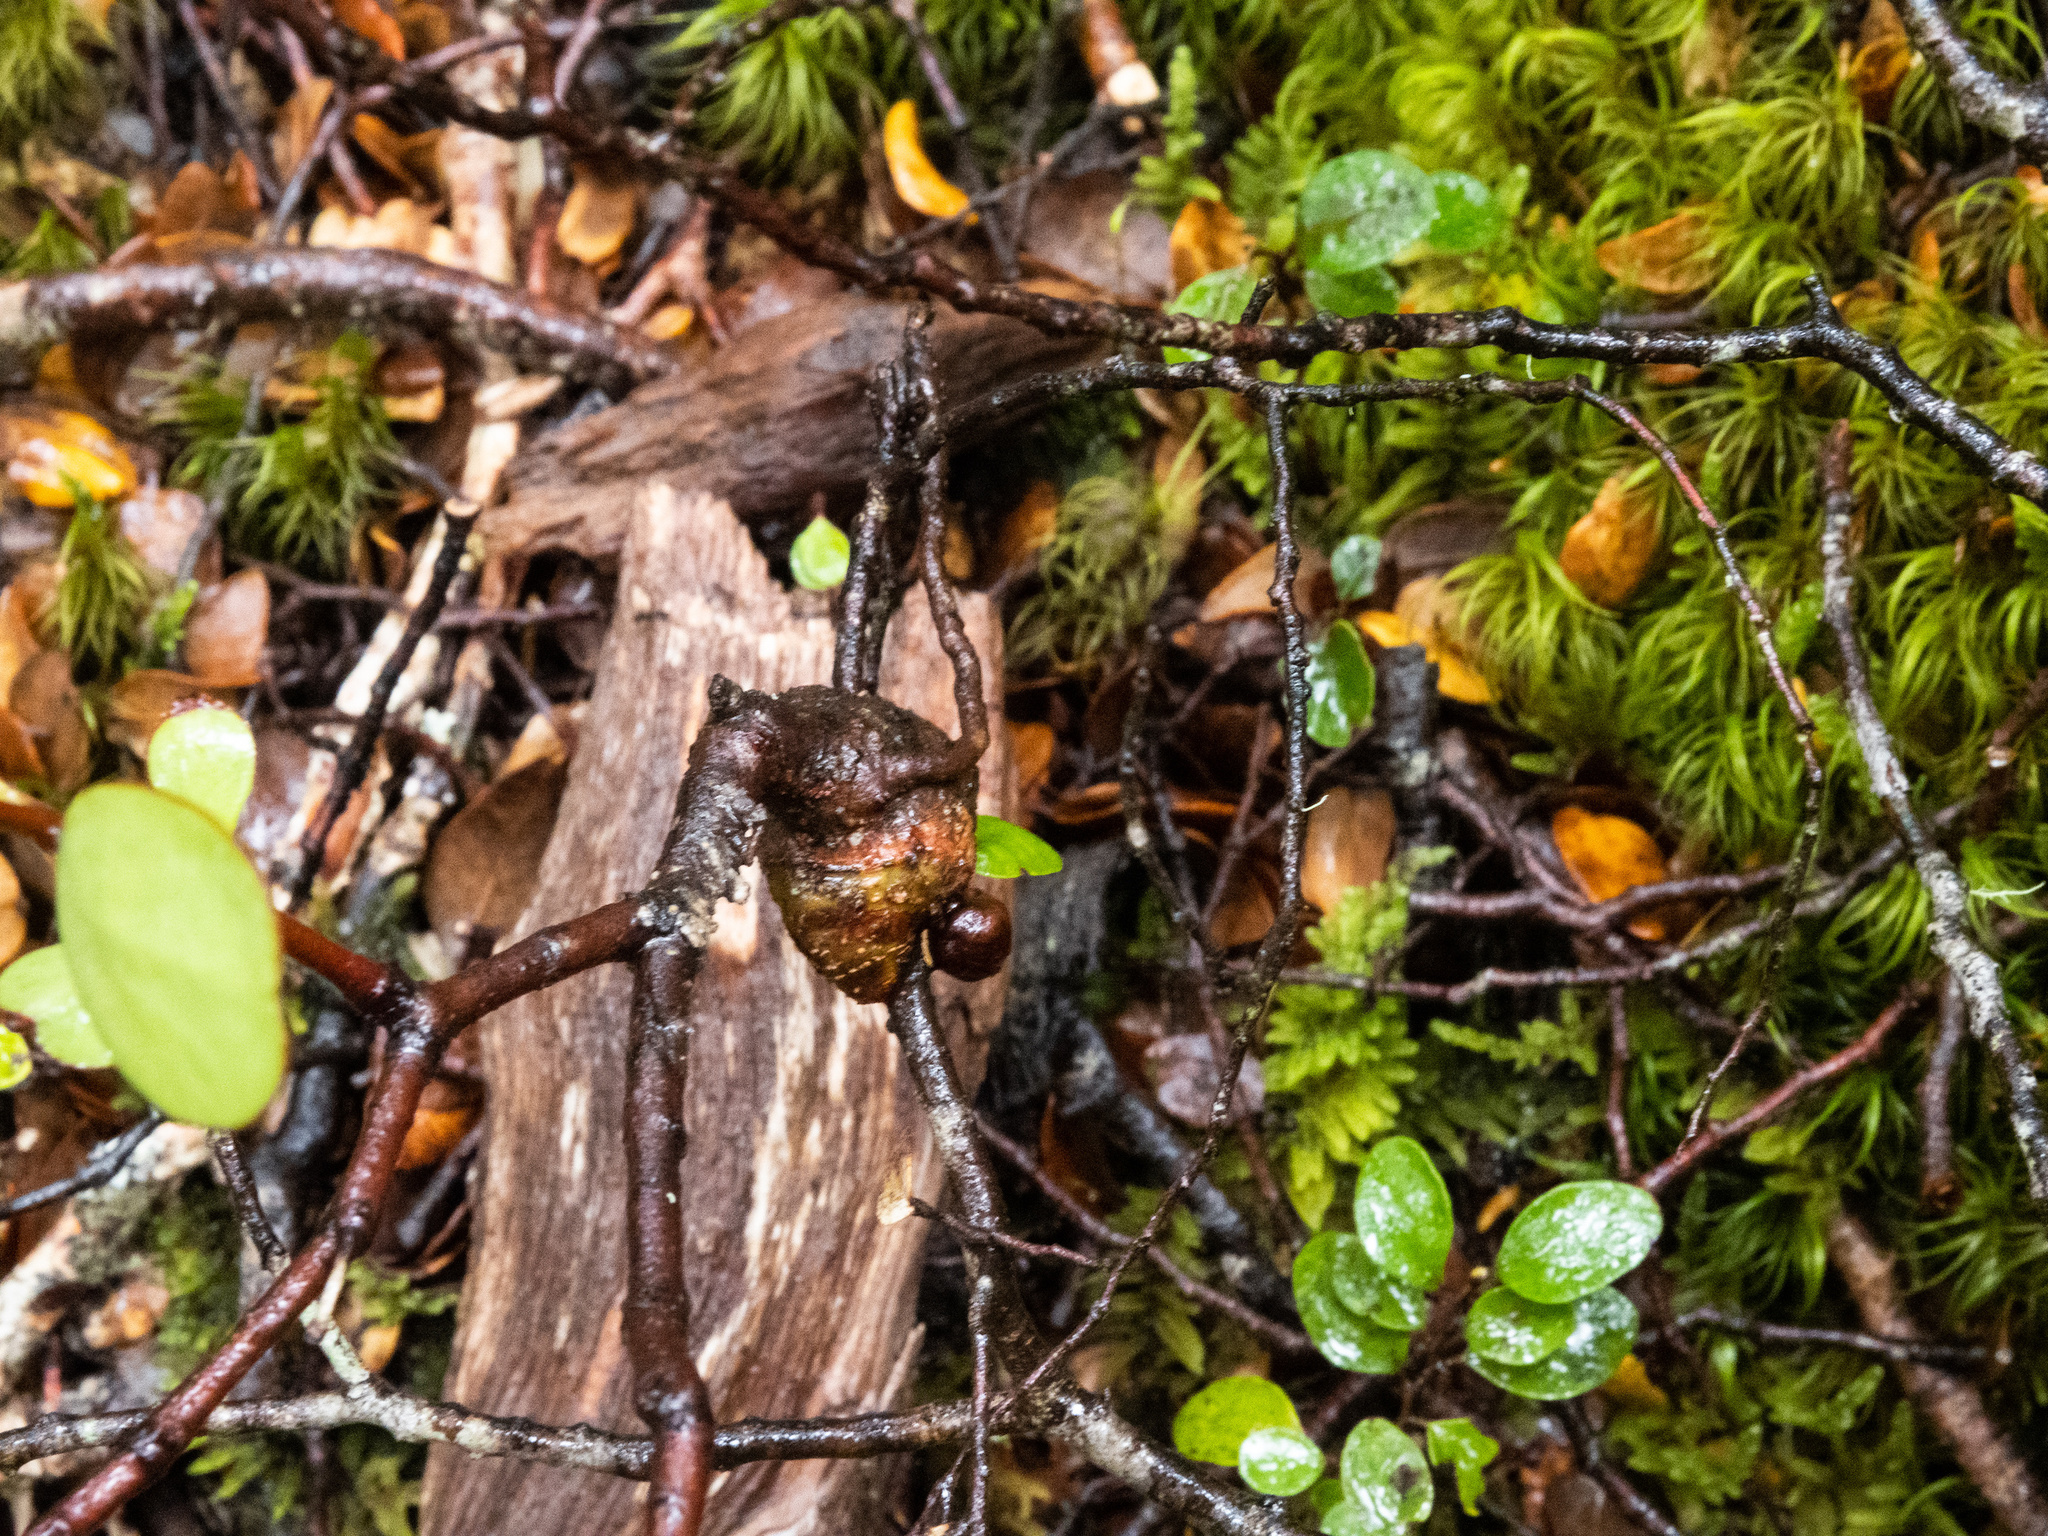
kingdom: Plantae
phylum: Tracheophyta
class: Magnoliopsida
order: Santalales
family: Loranthaceae
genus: Alepis
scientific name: Alepis flavida
